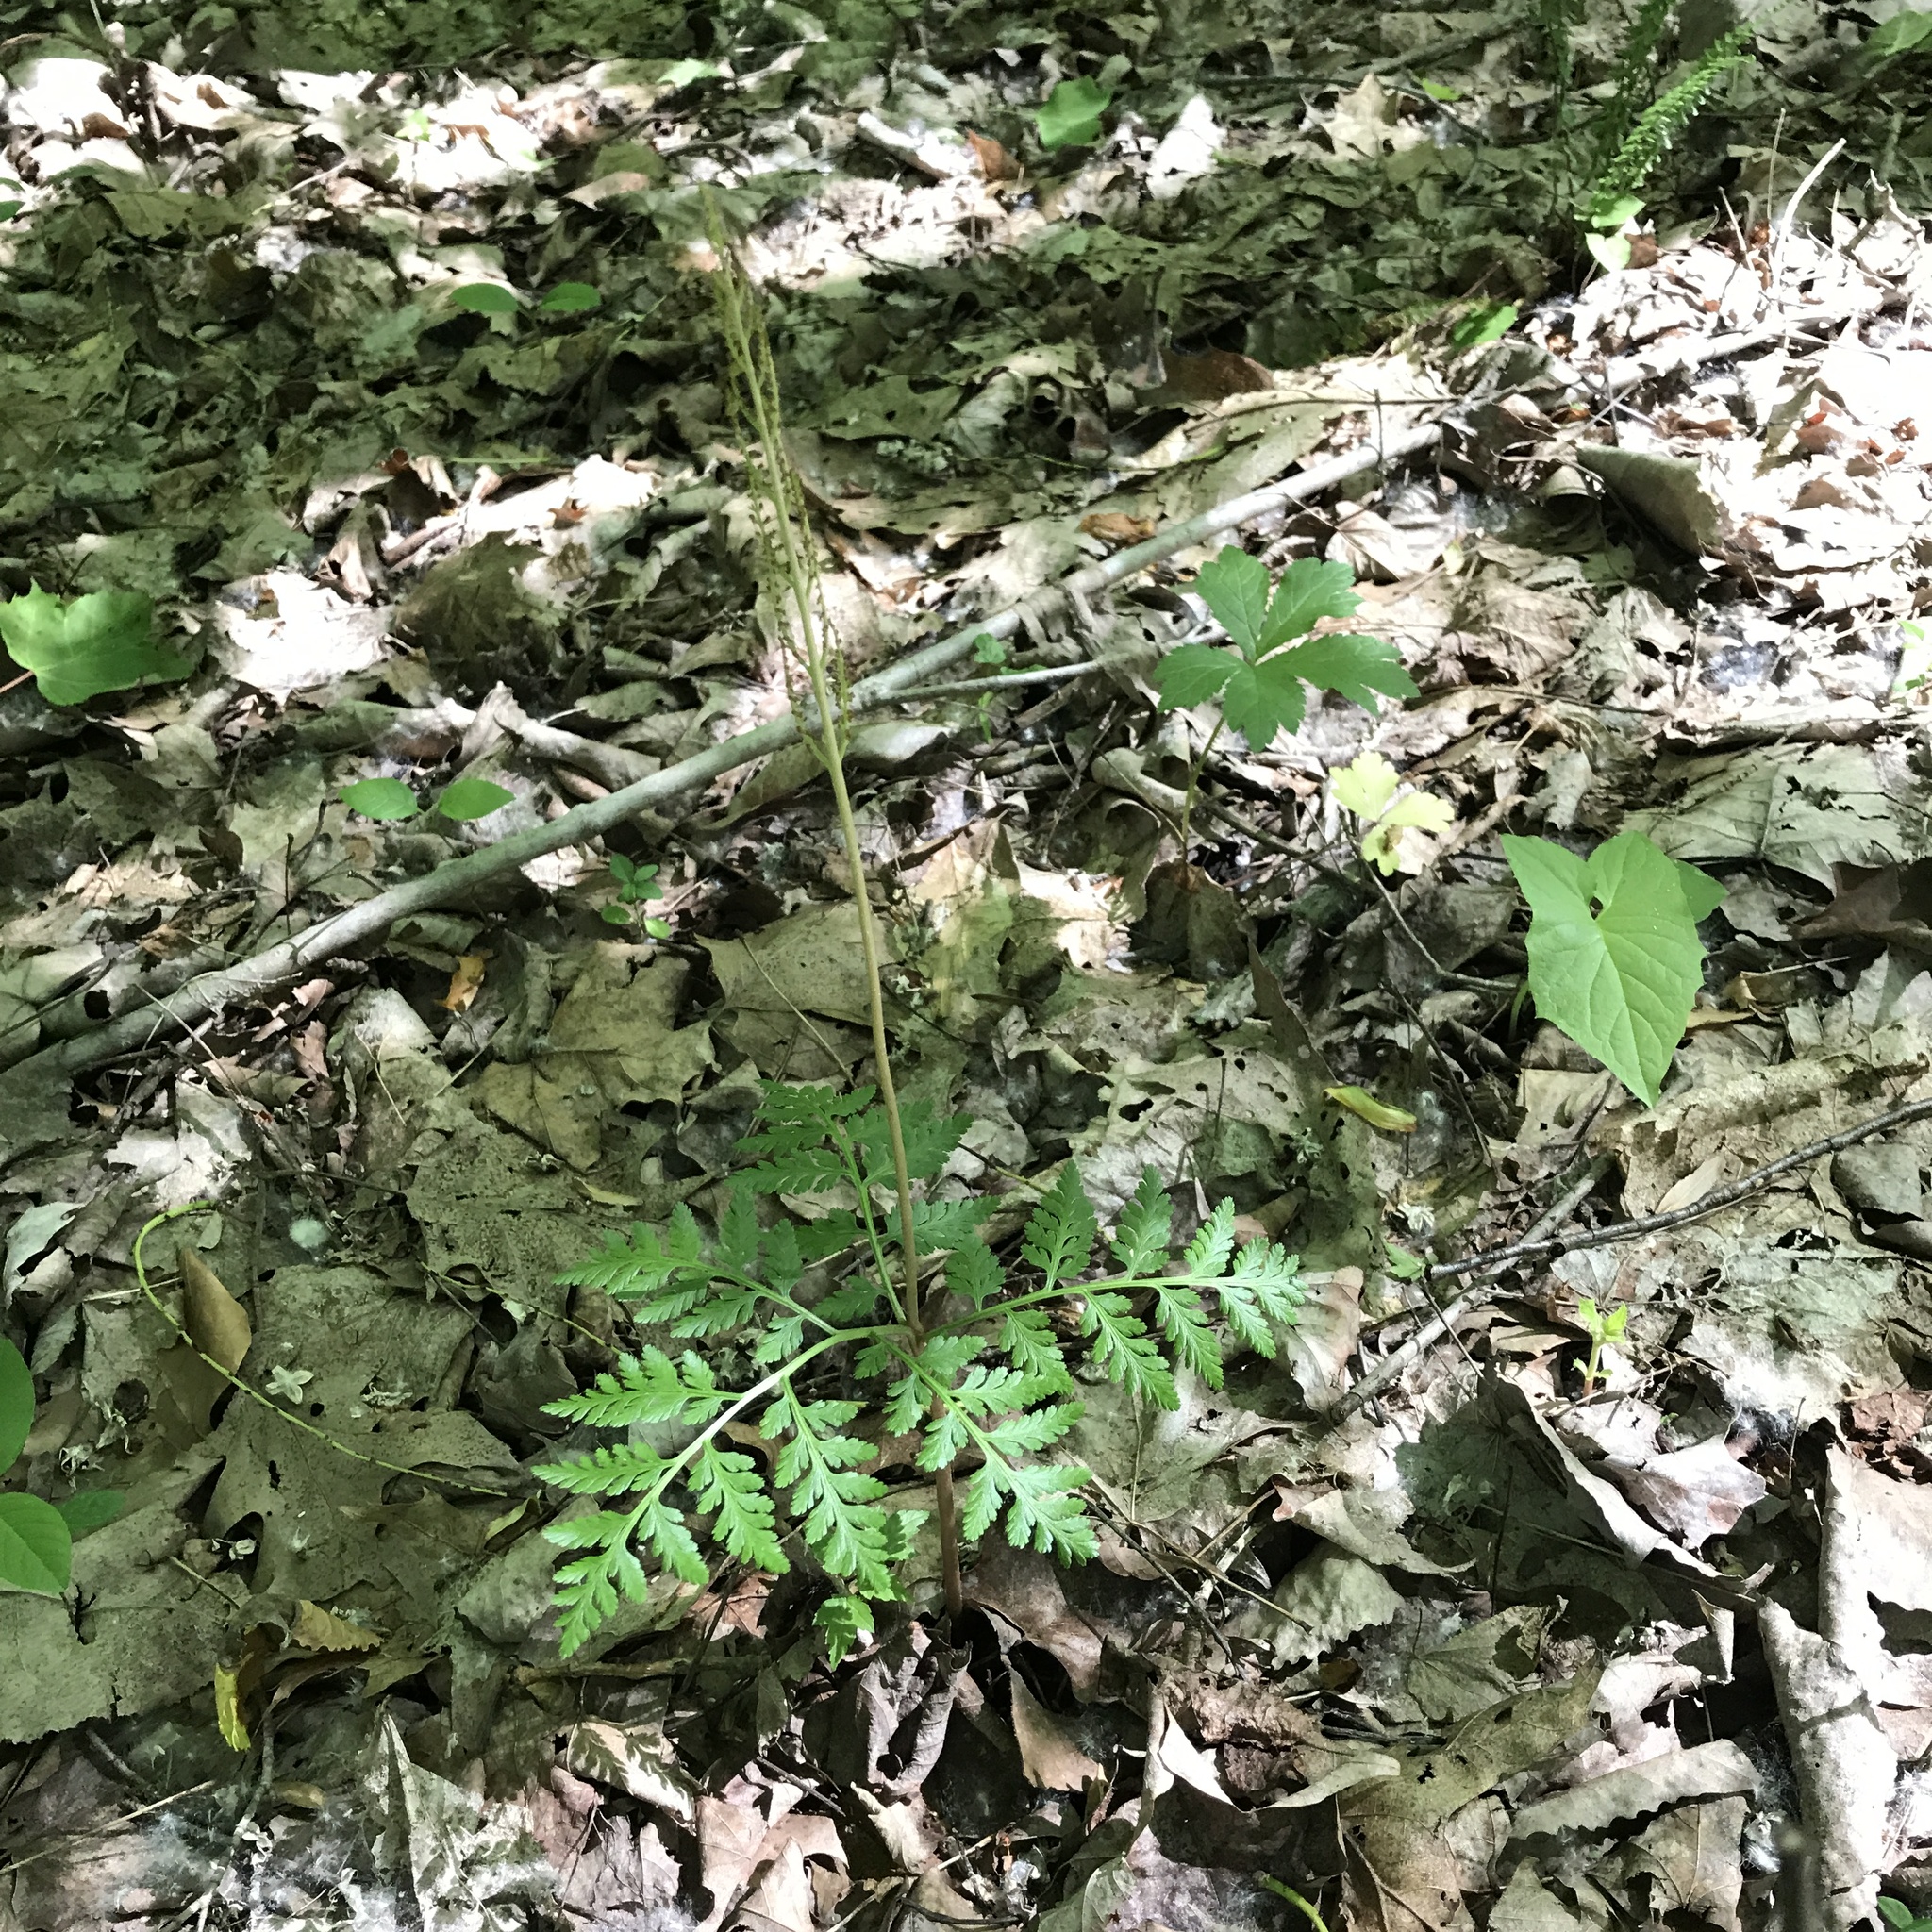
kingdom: Plantae
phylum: Tracheophyta
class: Polypodiopsida
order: Ophioglossales
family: Ophioglossaceae
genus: Botrypus
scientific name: Botrypus virginianus
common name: Common grapefern
